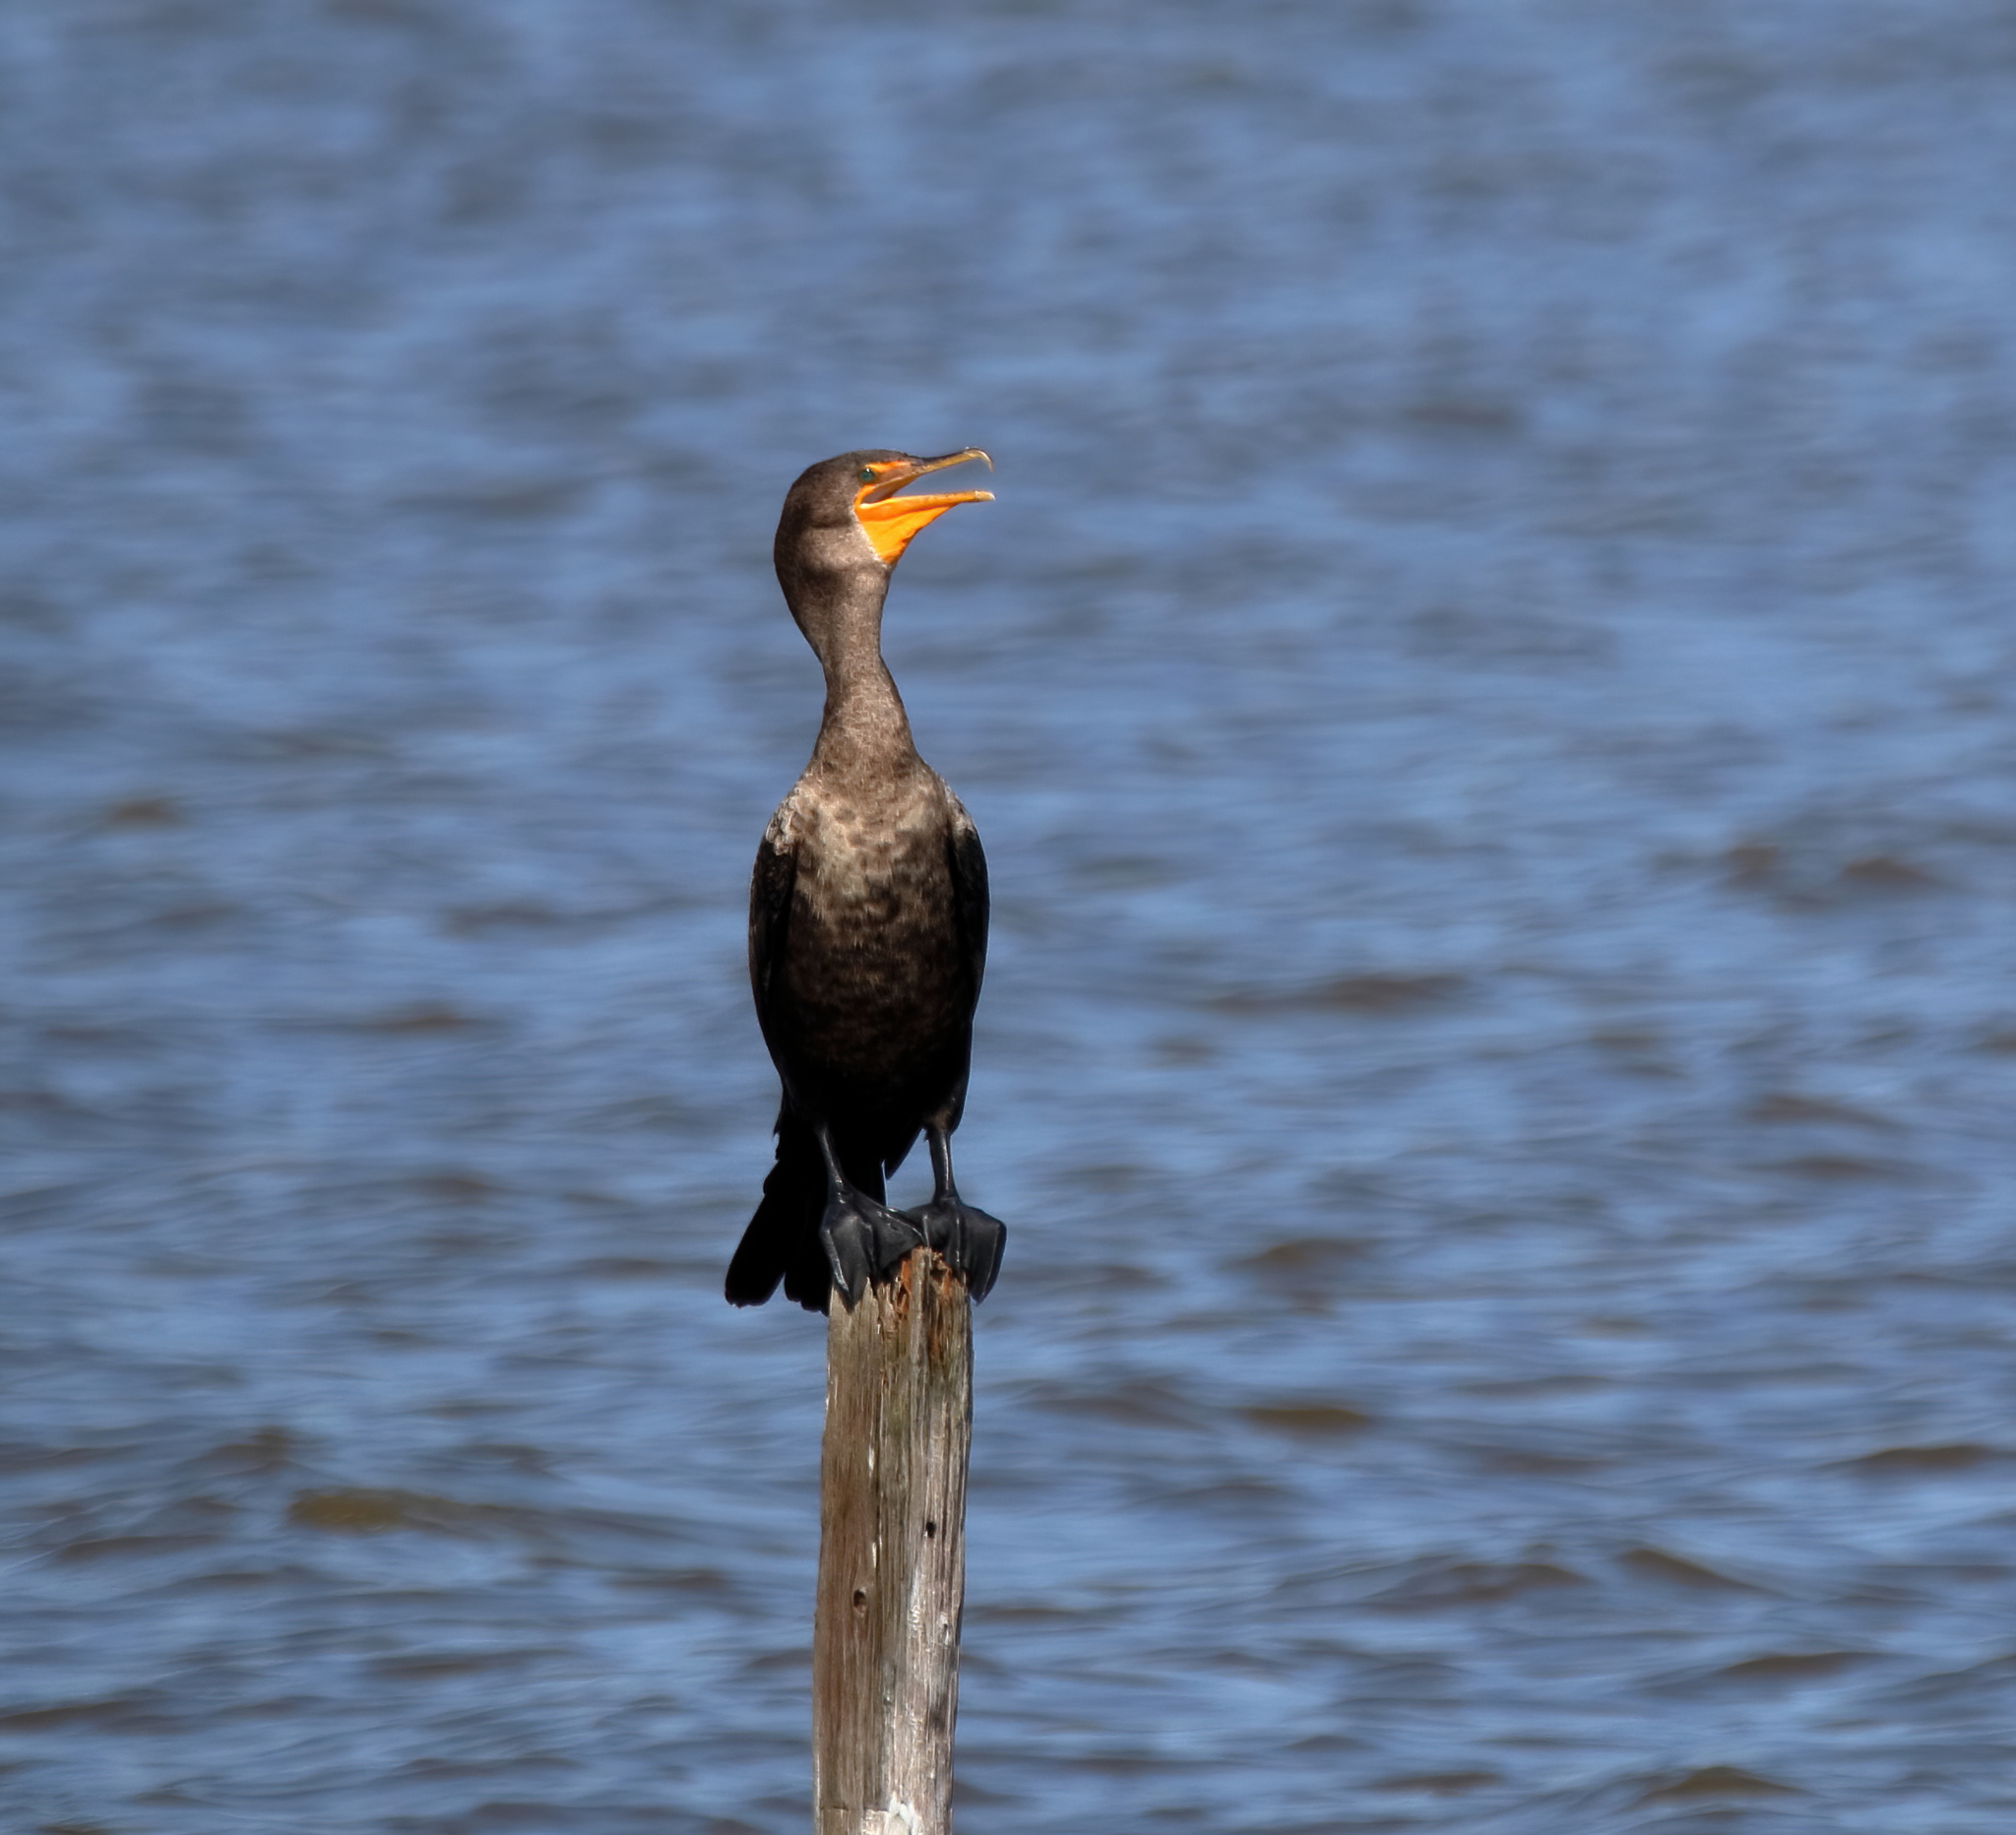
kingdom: Animalia
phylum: Chordata
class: Aves
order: Suliformes
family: Phalacrocoracidae
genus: Phalacrocorax
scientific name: Phalacrocorax auritus
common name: Double-crested cormorant
